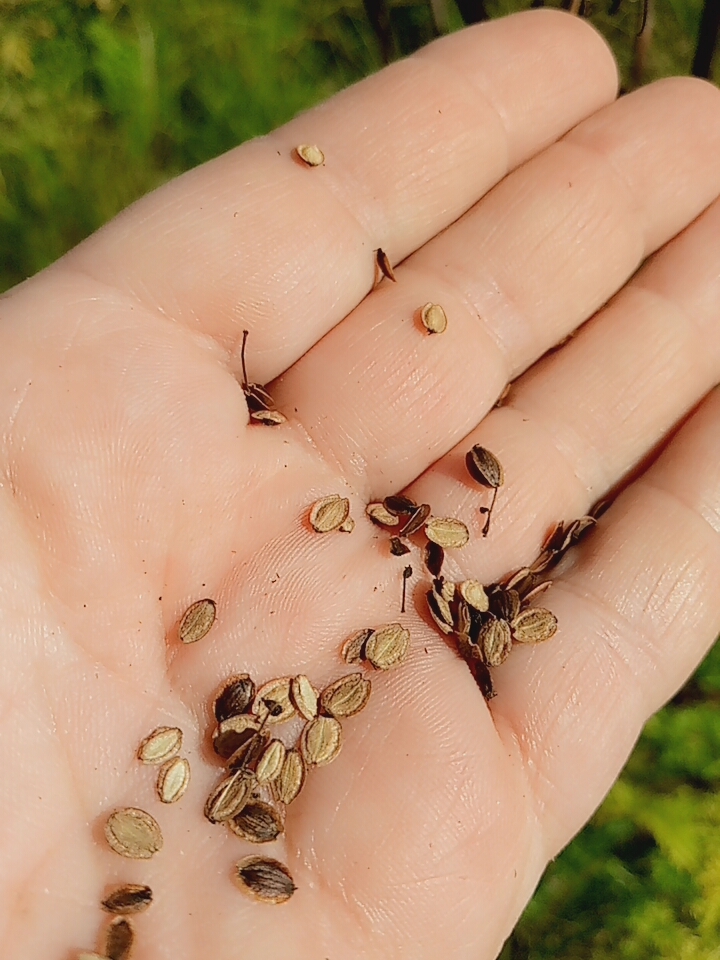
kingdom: Plantae
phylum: Tracheophyta
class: Magnoliopsida
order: Apiales
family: Apiaceae
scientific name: Apiaceae
